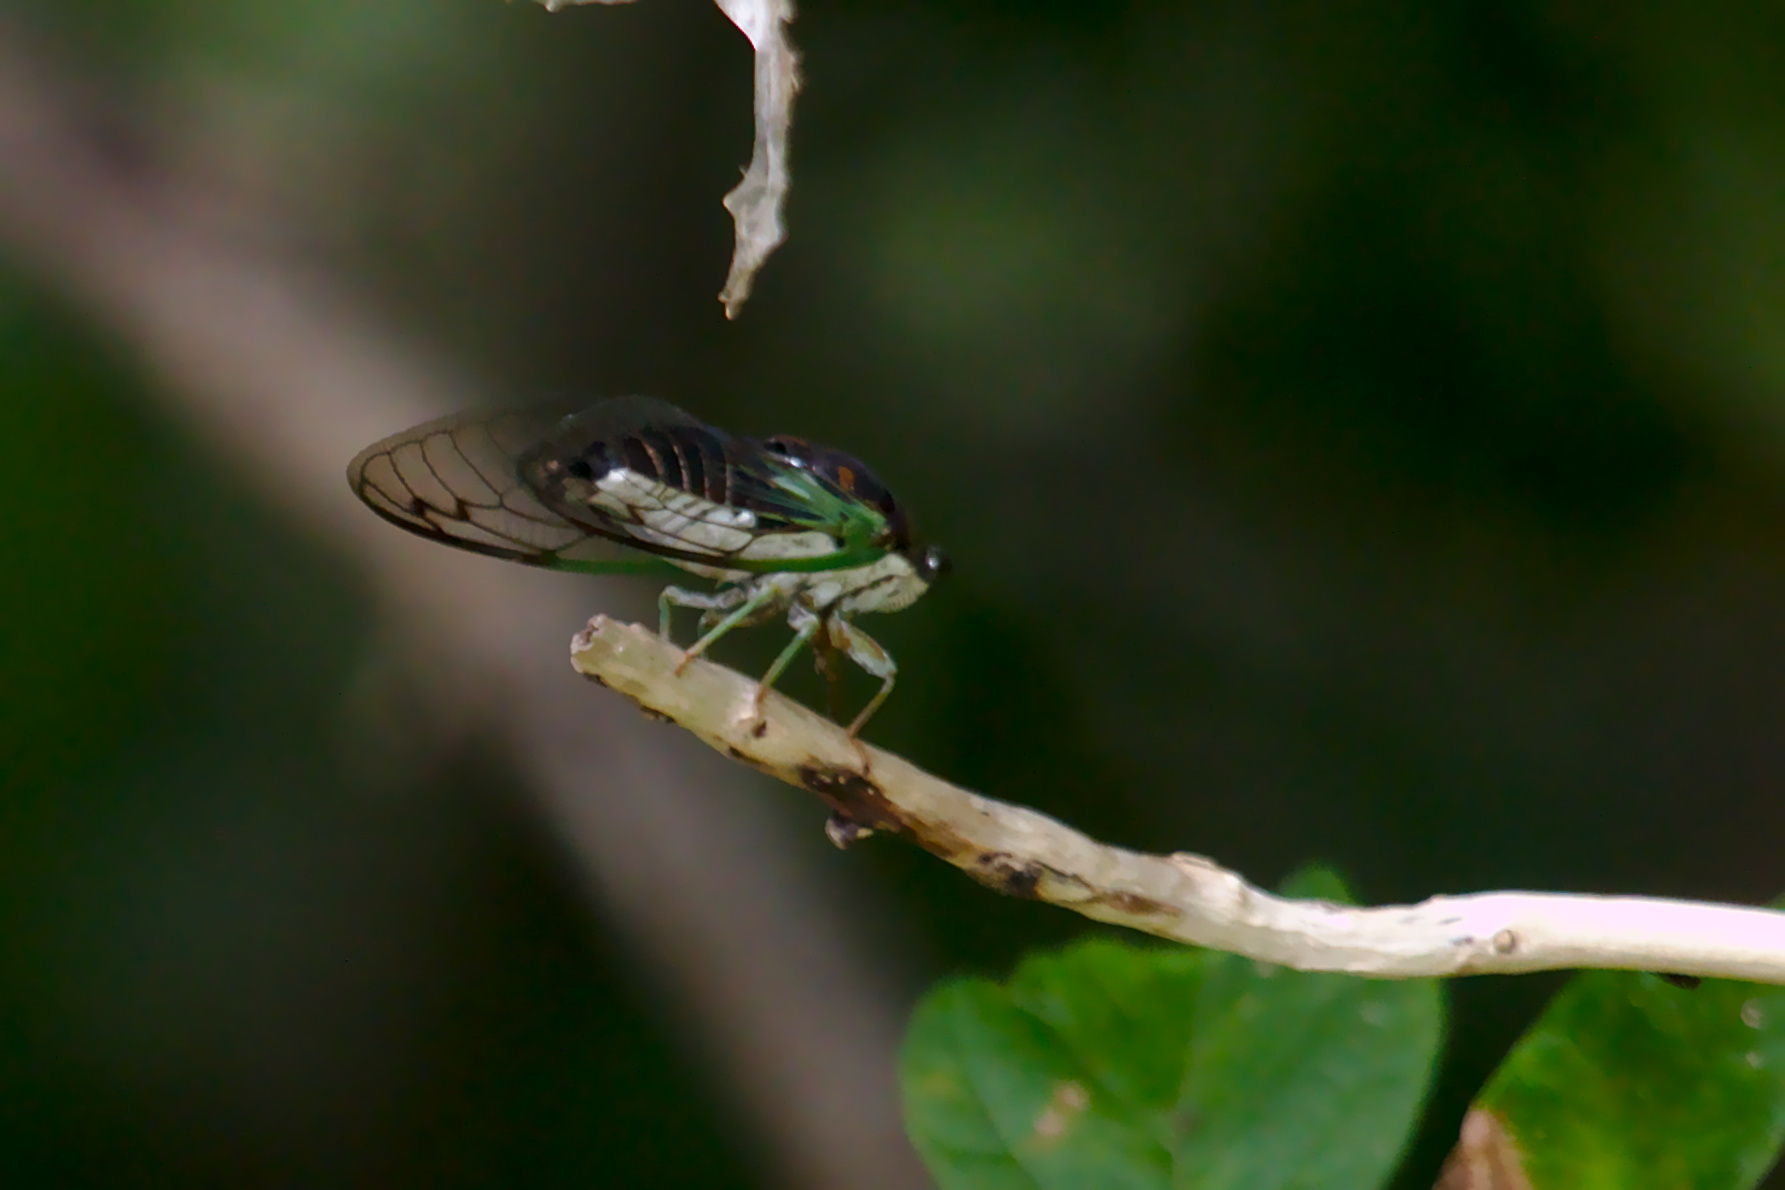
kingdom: Animalia
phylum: Arthropoda
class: Insecta
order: Hemiptera
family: Cicadidae
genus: Neotibicen
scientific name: Neotibicen tibicen
